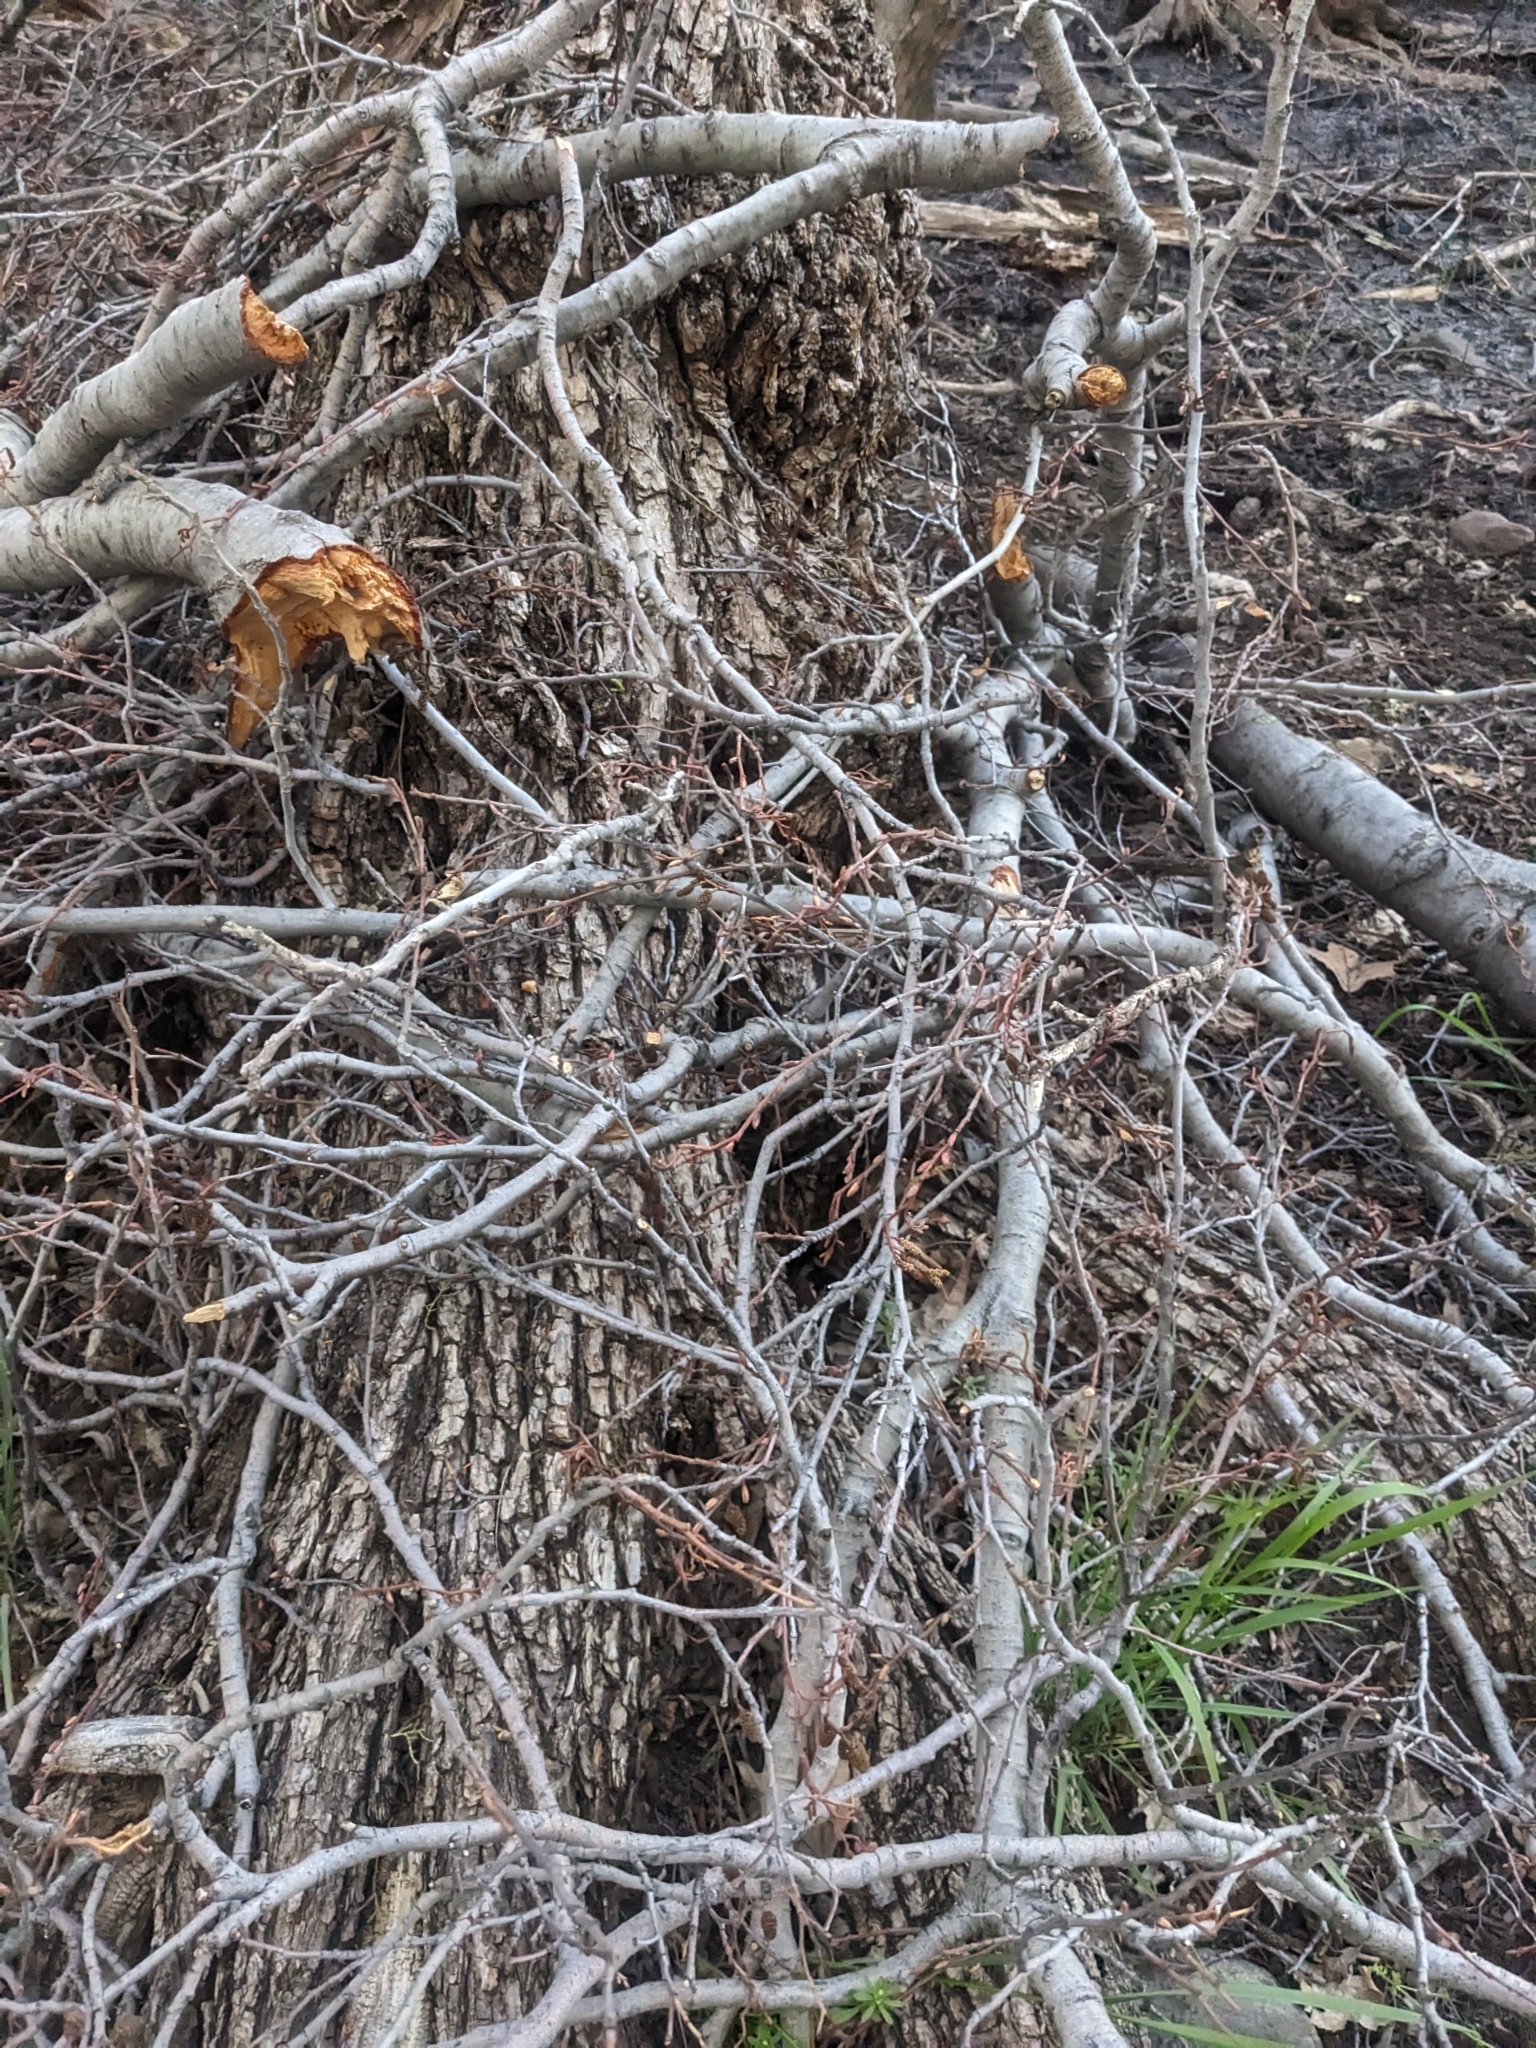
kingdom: Plantae
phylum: Tracheophyta
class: Magnoliopsida
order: Fagales
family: Betulaceae
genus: Alnus
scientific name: Alnus oblongifolia
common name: Arizona alder
